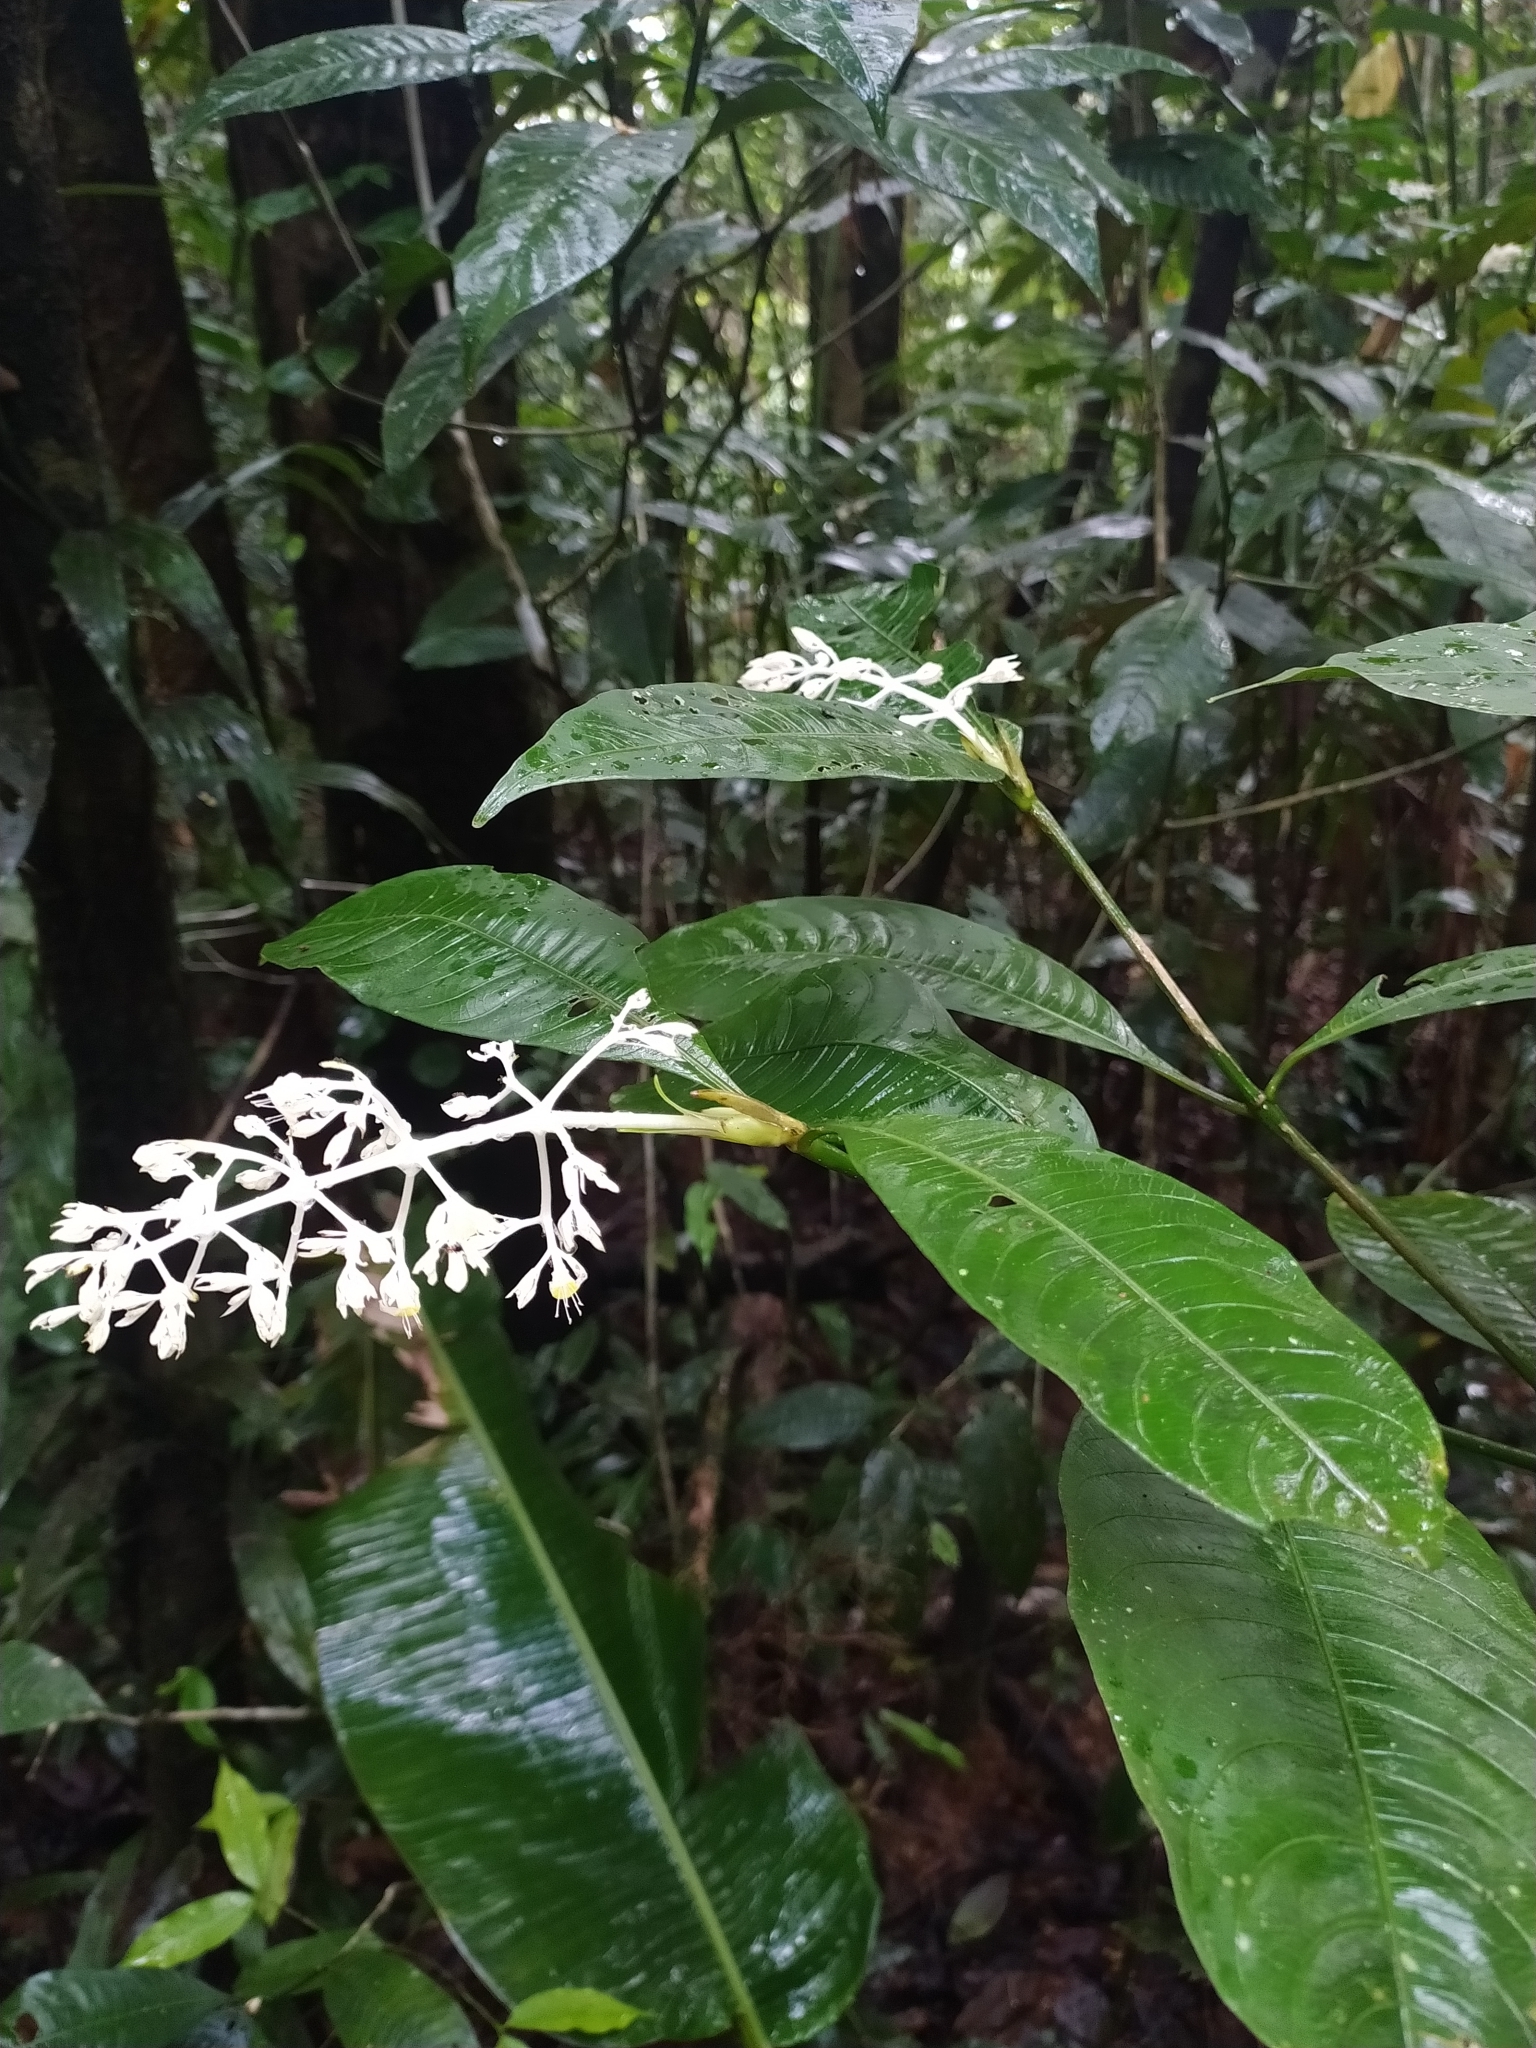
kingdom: Plantae
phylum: Tracheophyta
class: Magnoliopsida
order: Gentianales
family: Rubiaceae
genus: Palicourea
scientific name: Palicourea violacea
